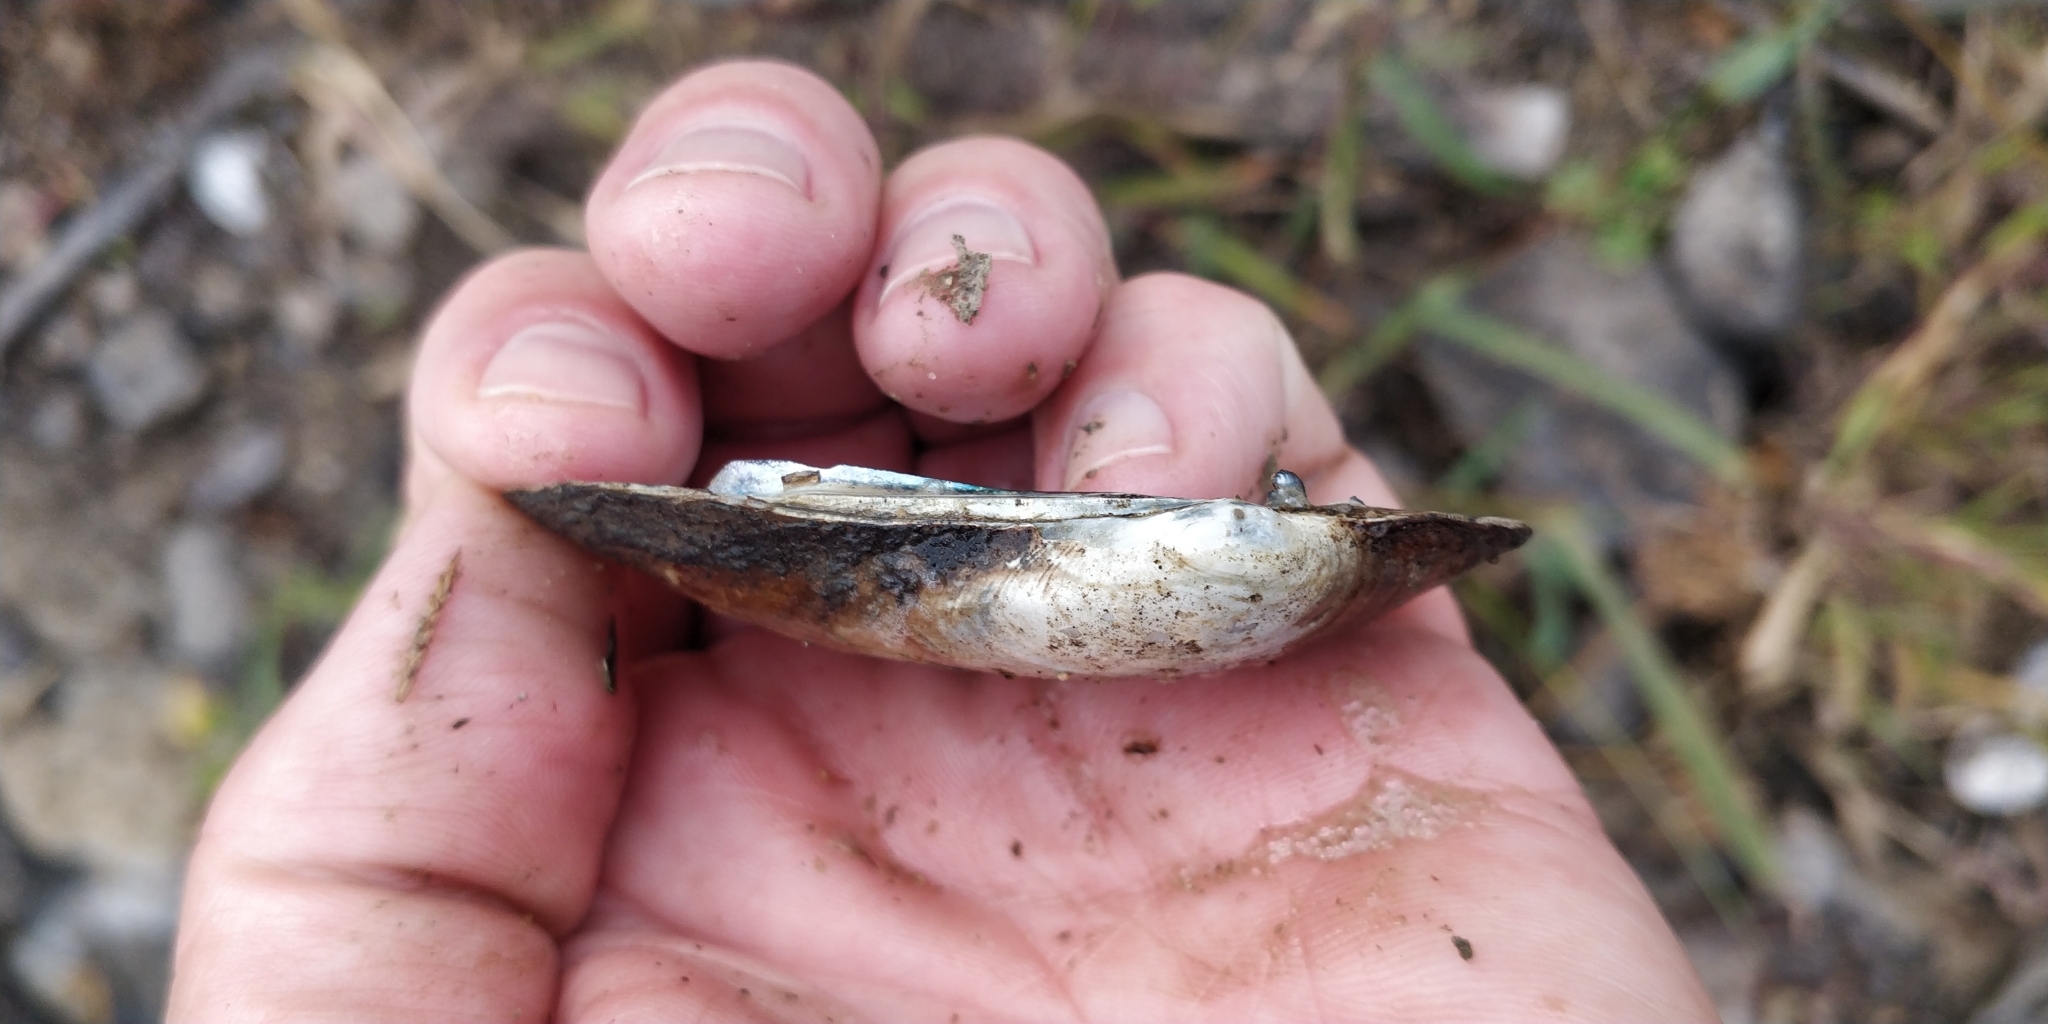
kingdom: Animalia
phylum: Mollusca
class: Bivalvia
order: Unionida
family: Unionidae
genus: Lampsilis
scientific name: Lampsilis siliquoidea
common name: Fatmucket
